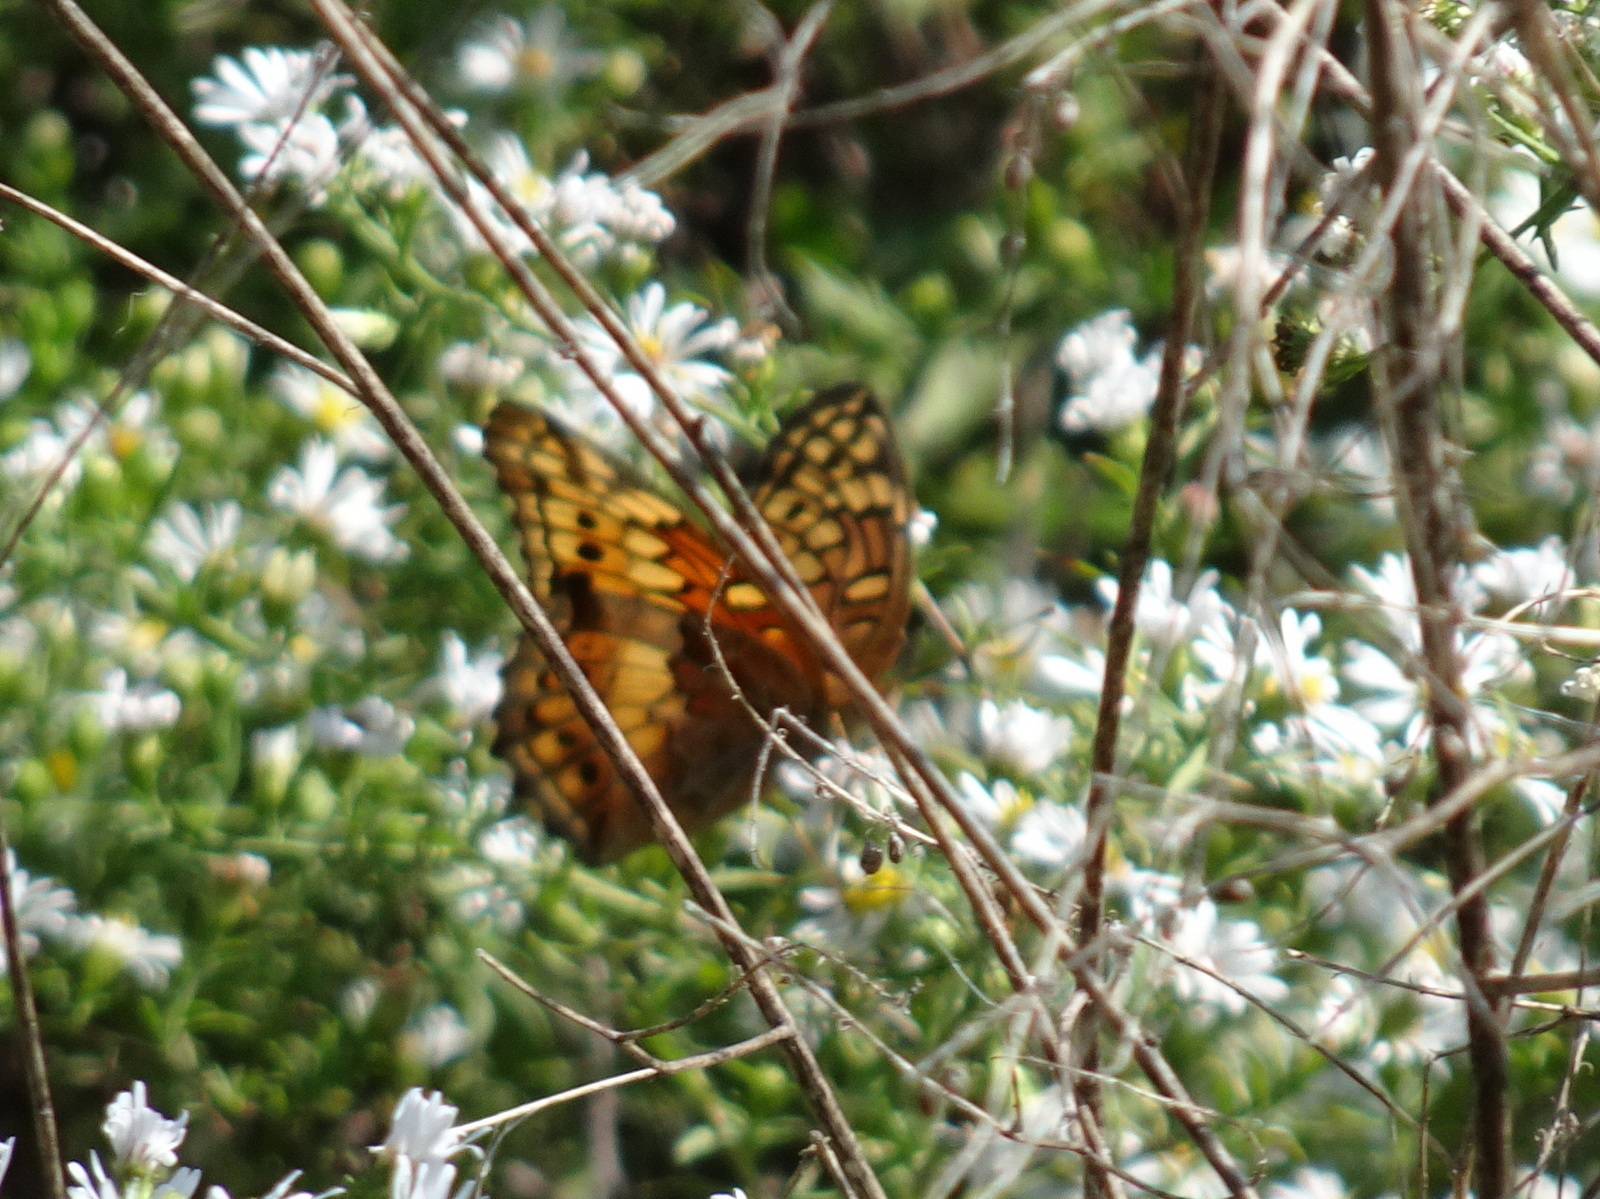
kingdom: Animalia
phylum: Arthropoda
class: Insecta
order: Lepidoptera
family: Nymphalidae
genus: Euptoieta
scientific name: Euptoieta claudia
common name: Variegated fritillary
